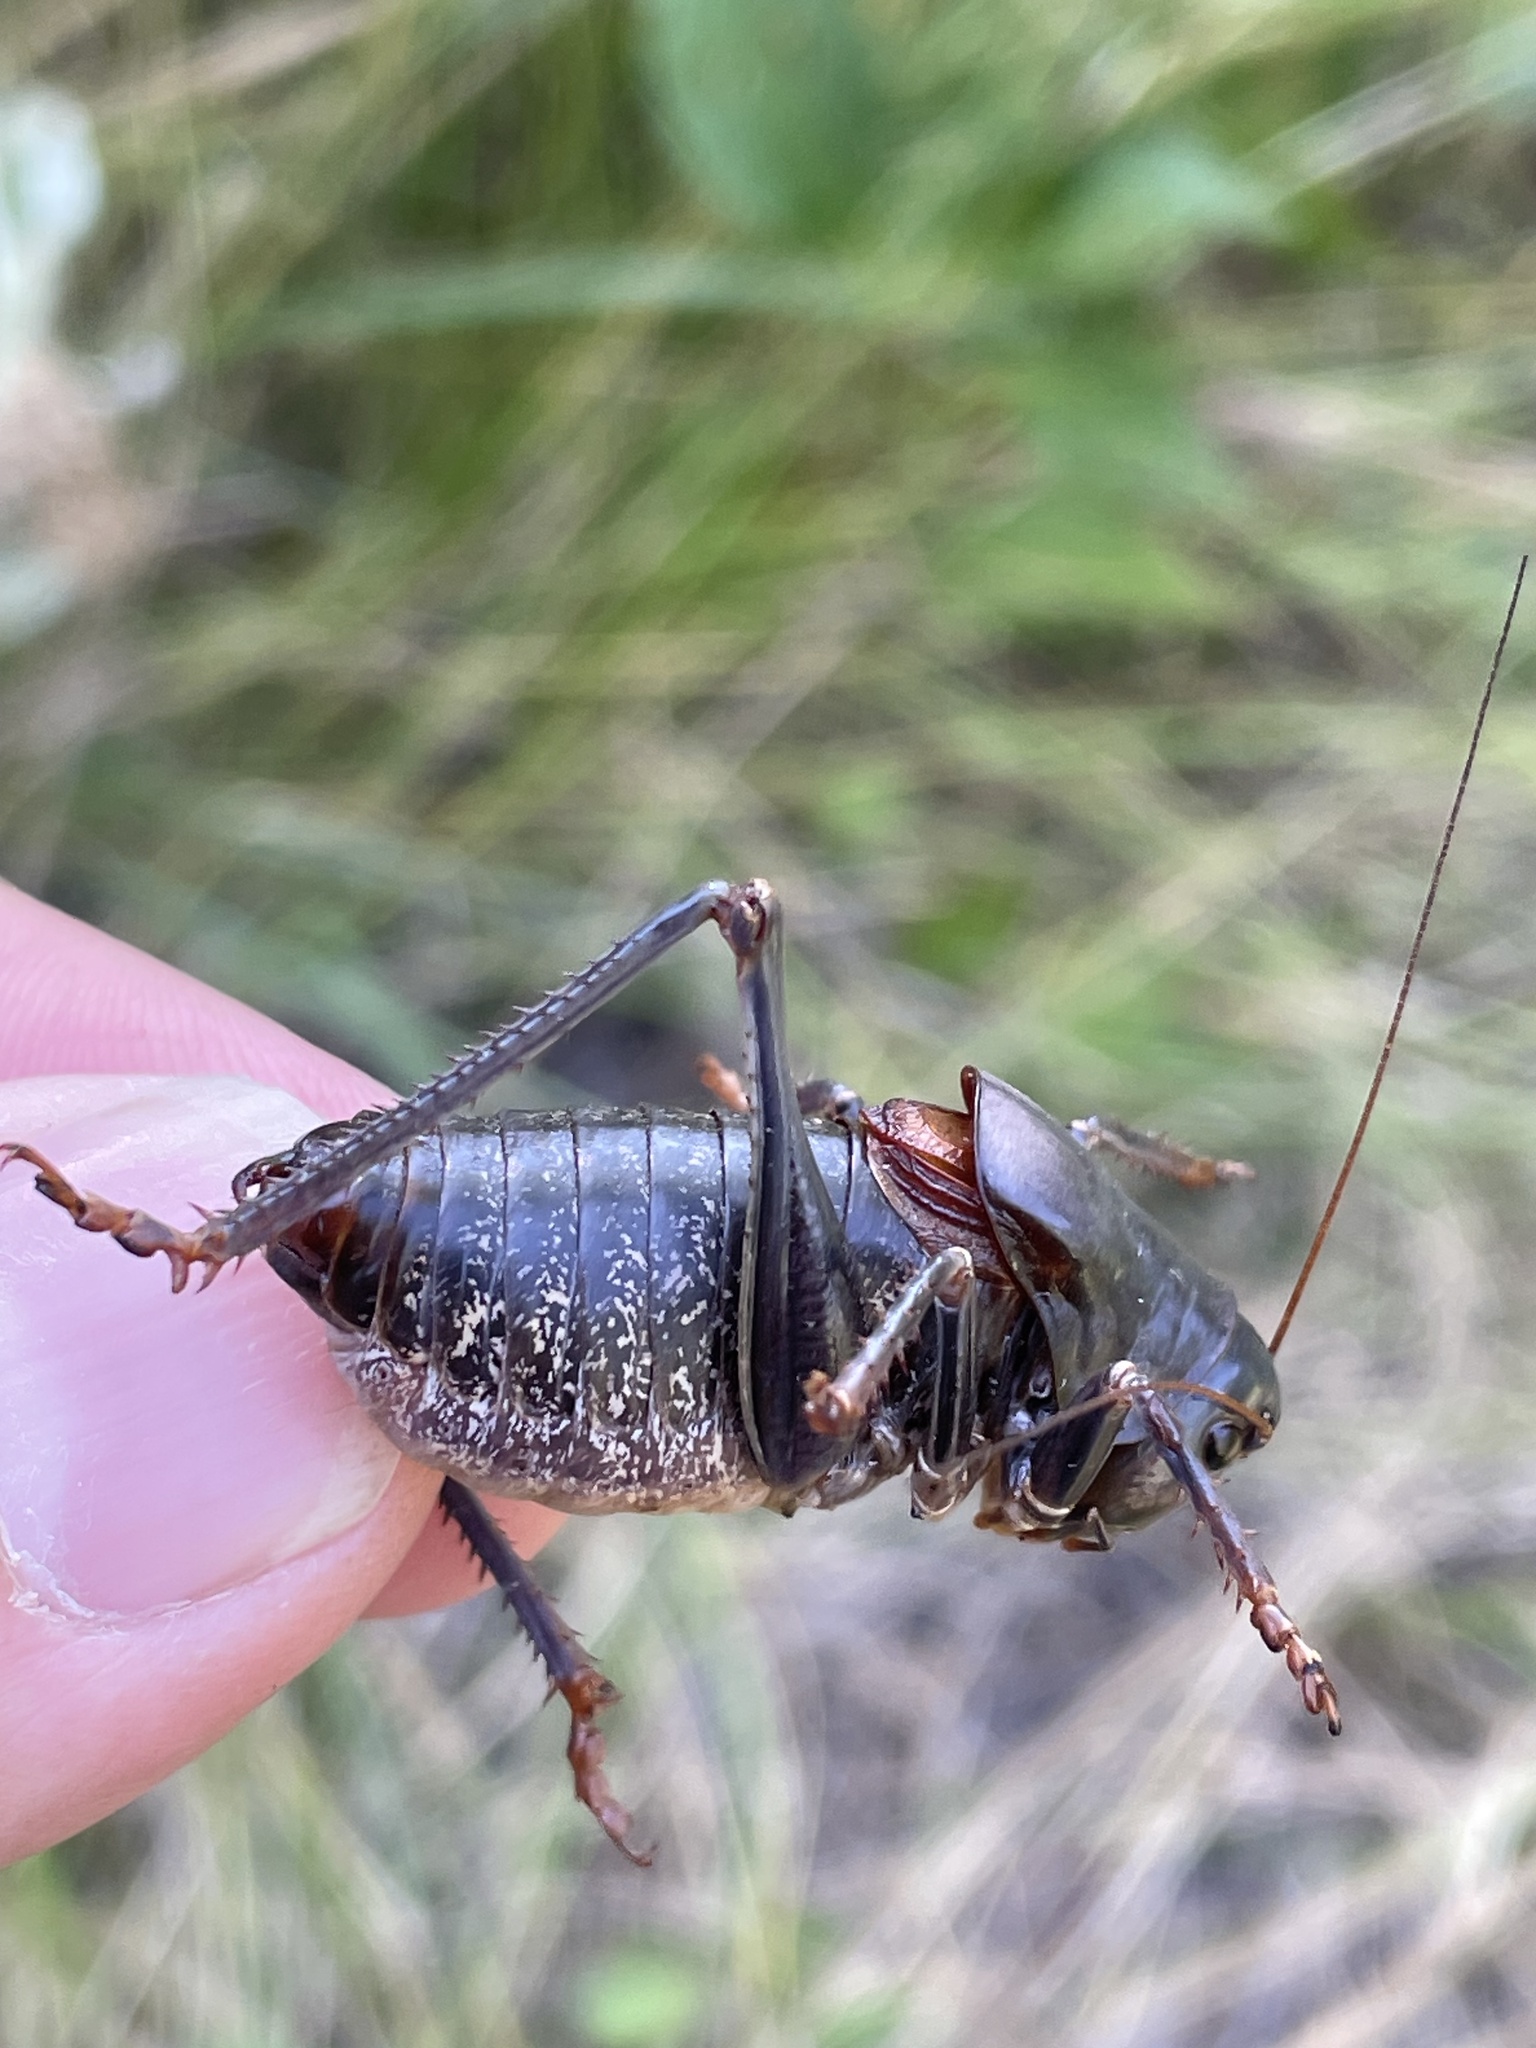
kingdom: Animalia
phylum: Arthropoda
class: Insecta
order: Orthoptera
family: Tettigoniidae
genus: Anabrus
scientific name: Anabrus simplex
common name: Mormon cricket
